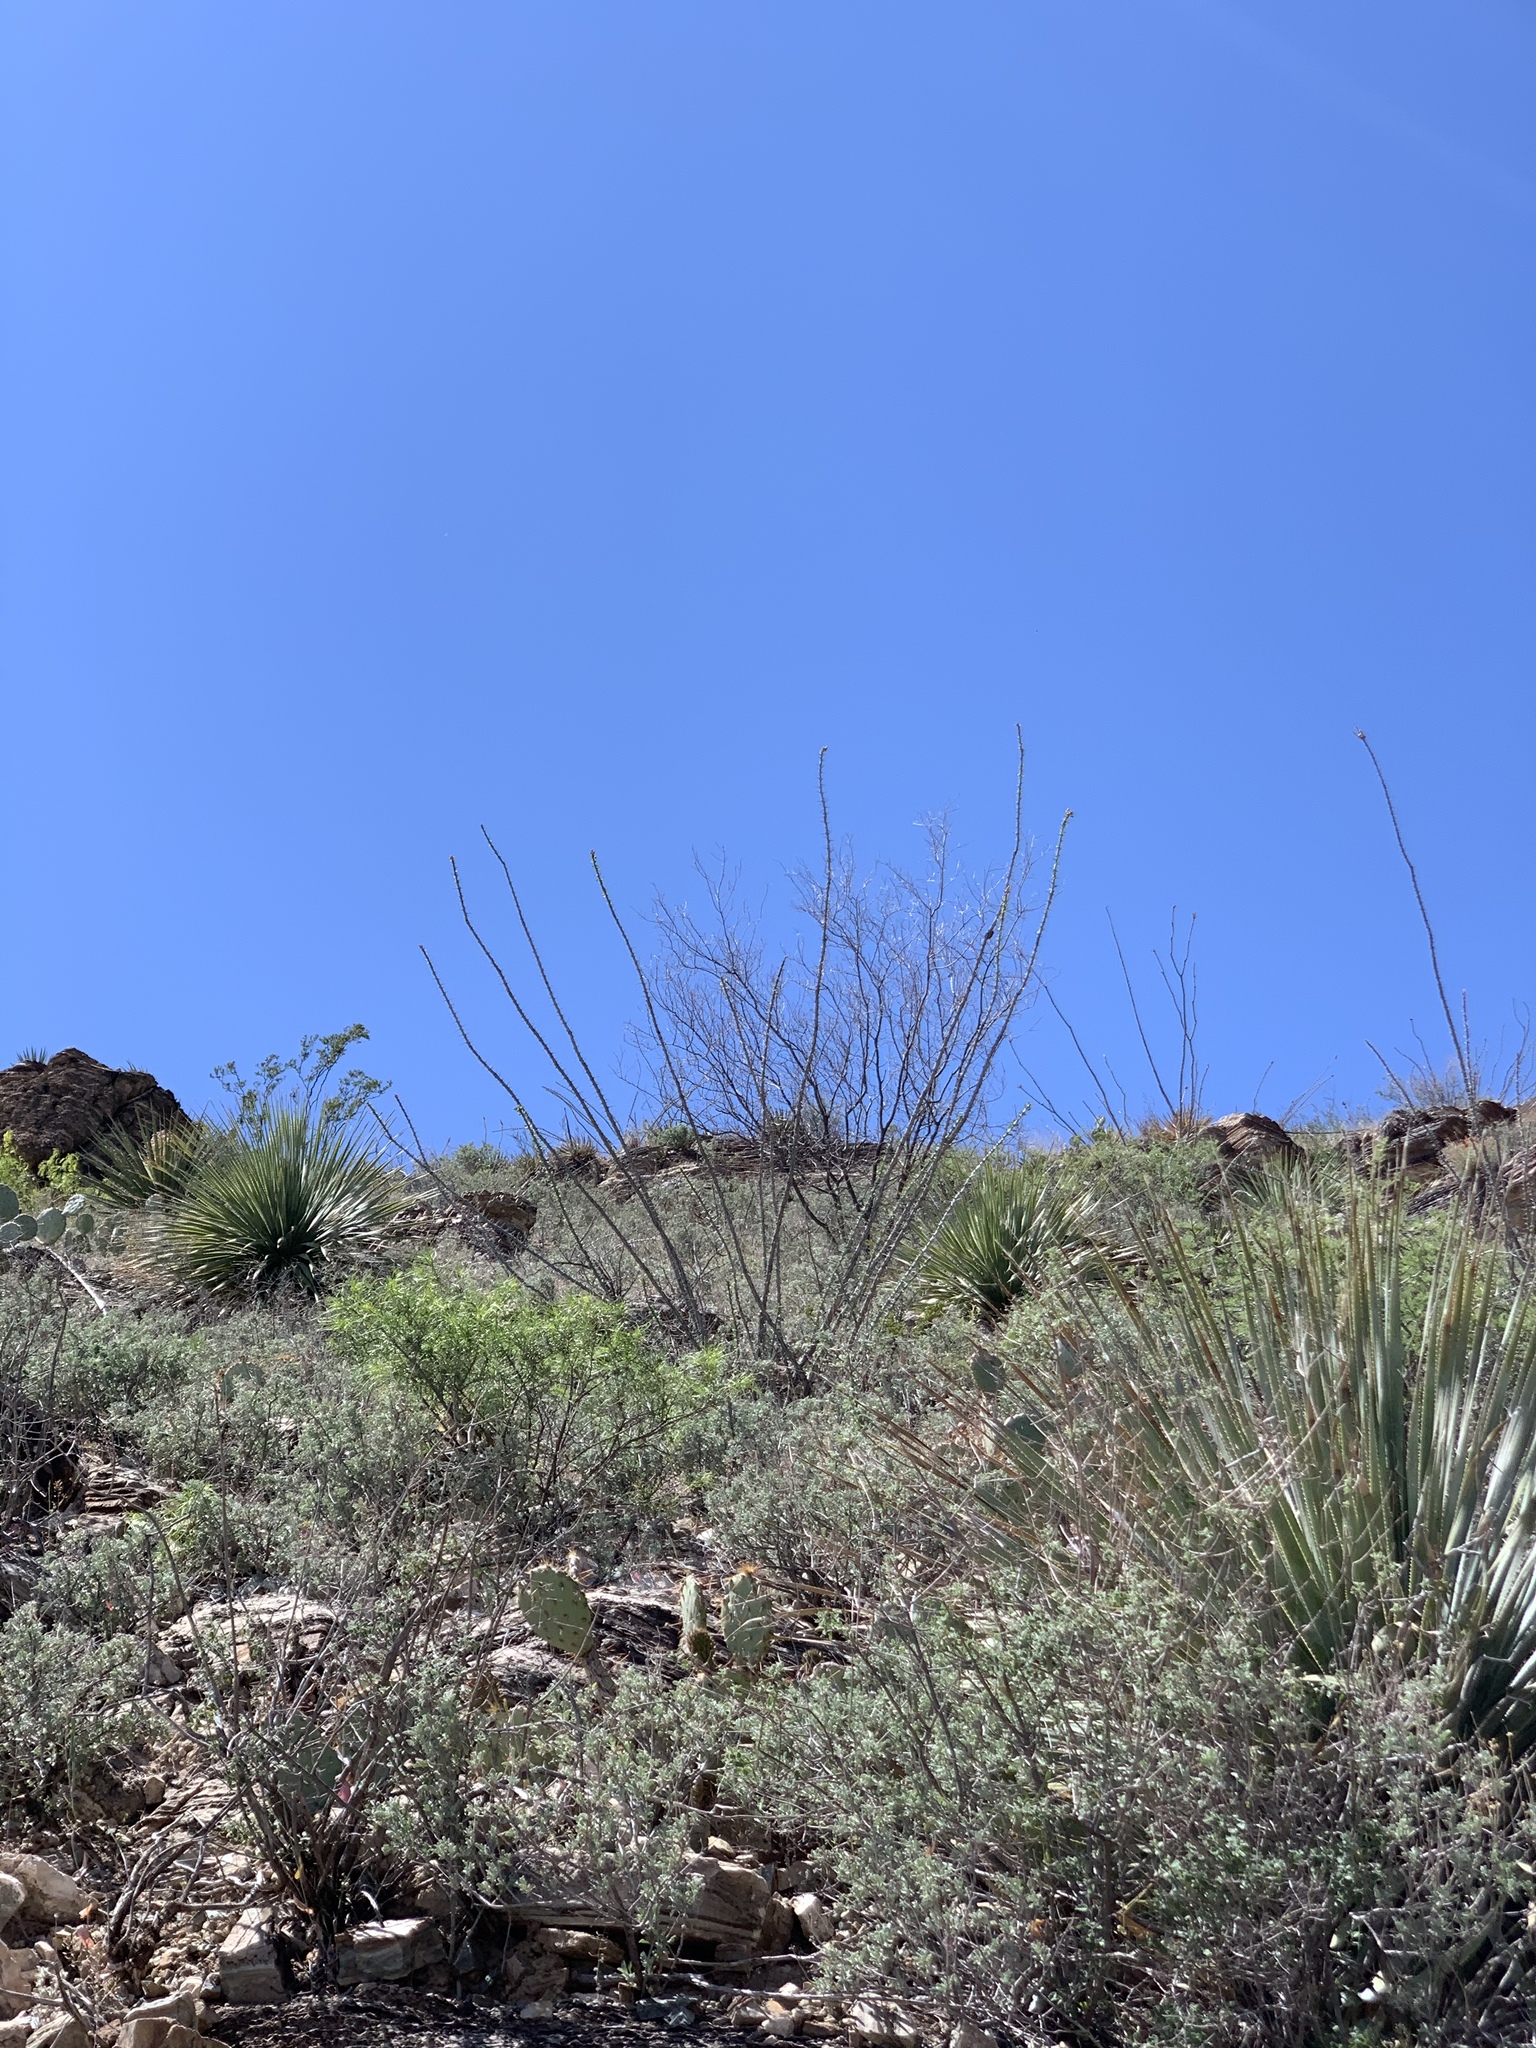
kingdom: Plantae
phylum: Tracheophyta
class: Magnoliopsida
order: Ericales
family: Fouquieriaceae
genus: Fouquieria
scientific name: Fouquieria splendens
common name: Vine-cactus
